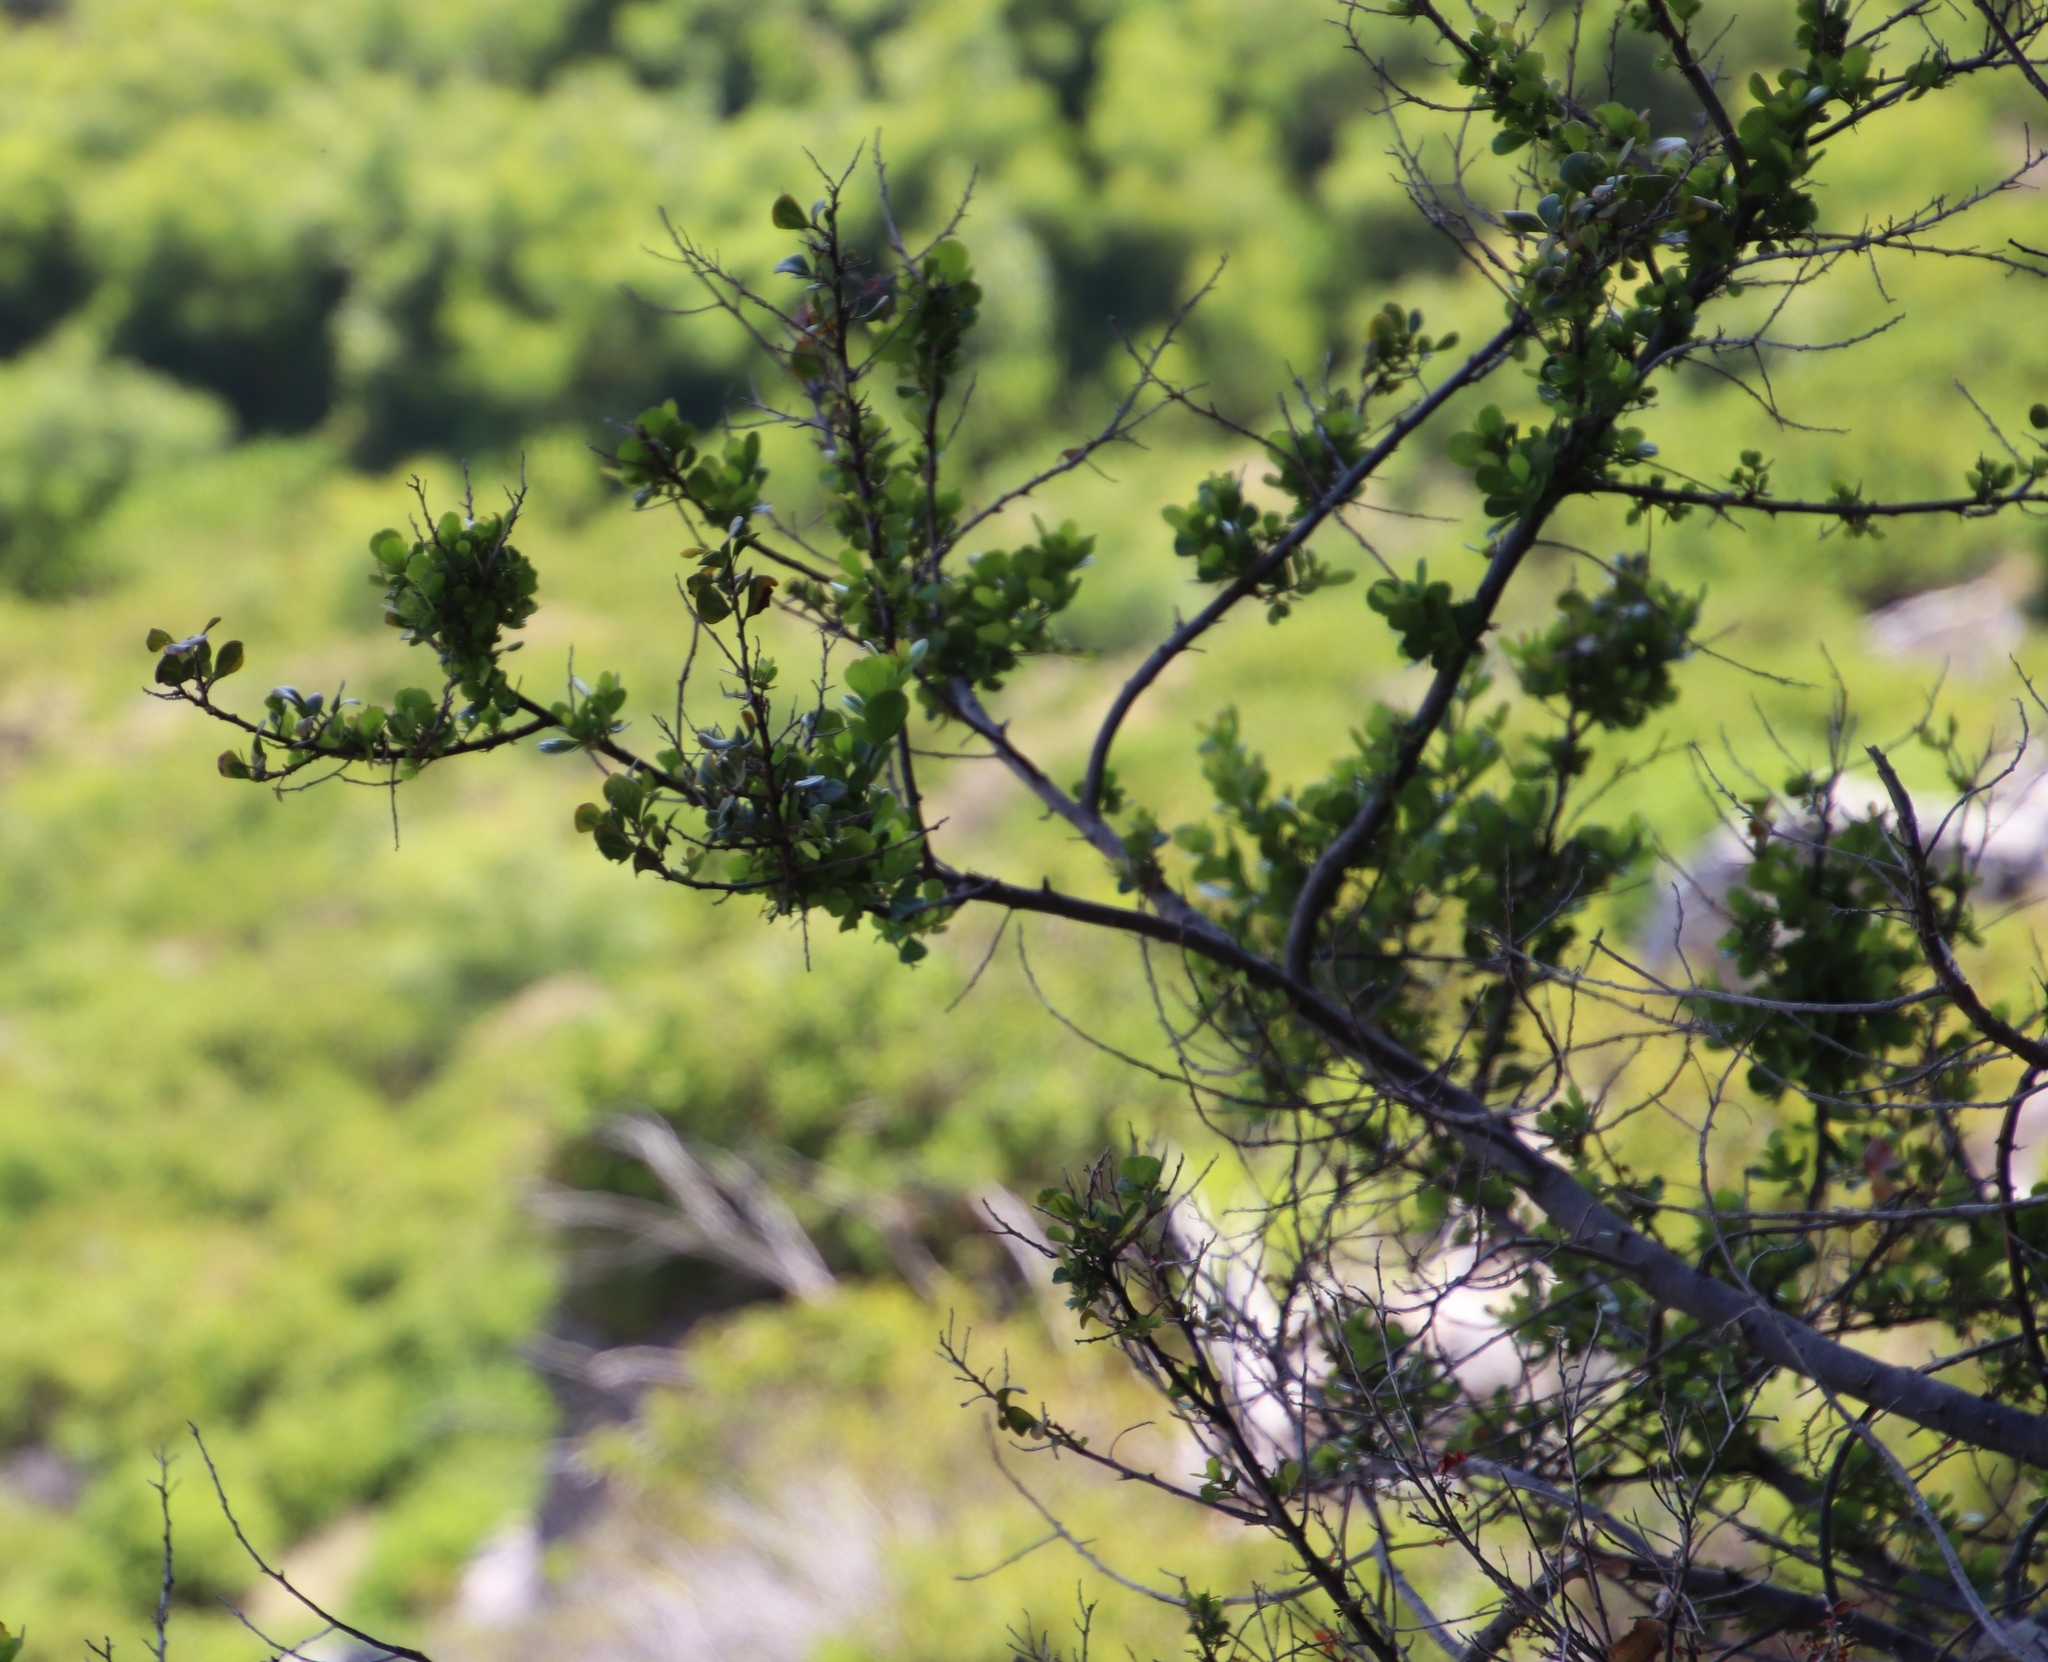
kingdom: Plantae
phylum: Tracheophyta
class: Magnoliopsida
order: Sapindales
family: Anacardiaceae
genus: Searsia
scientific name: Searsia lucida
